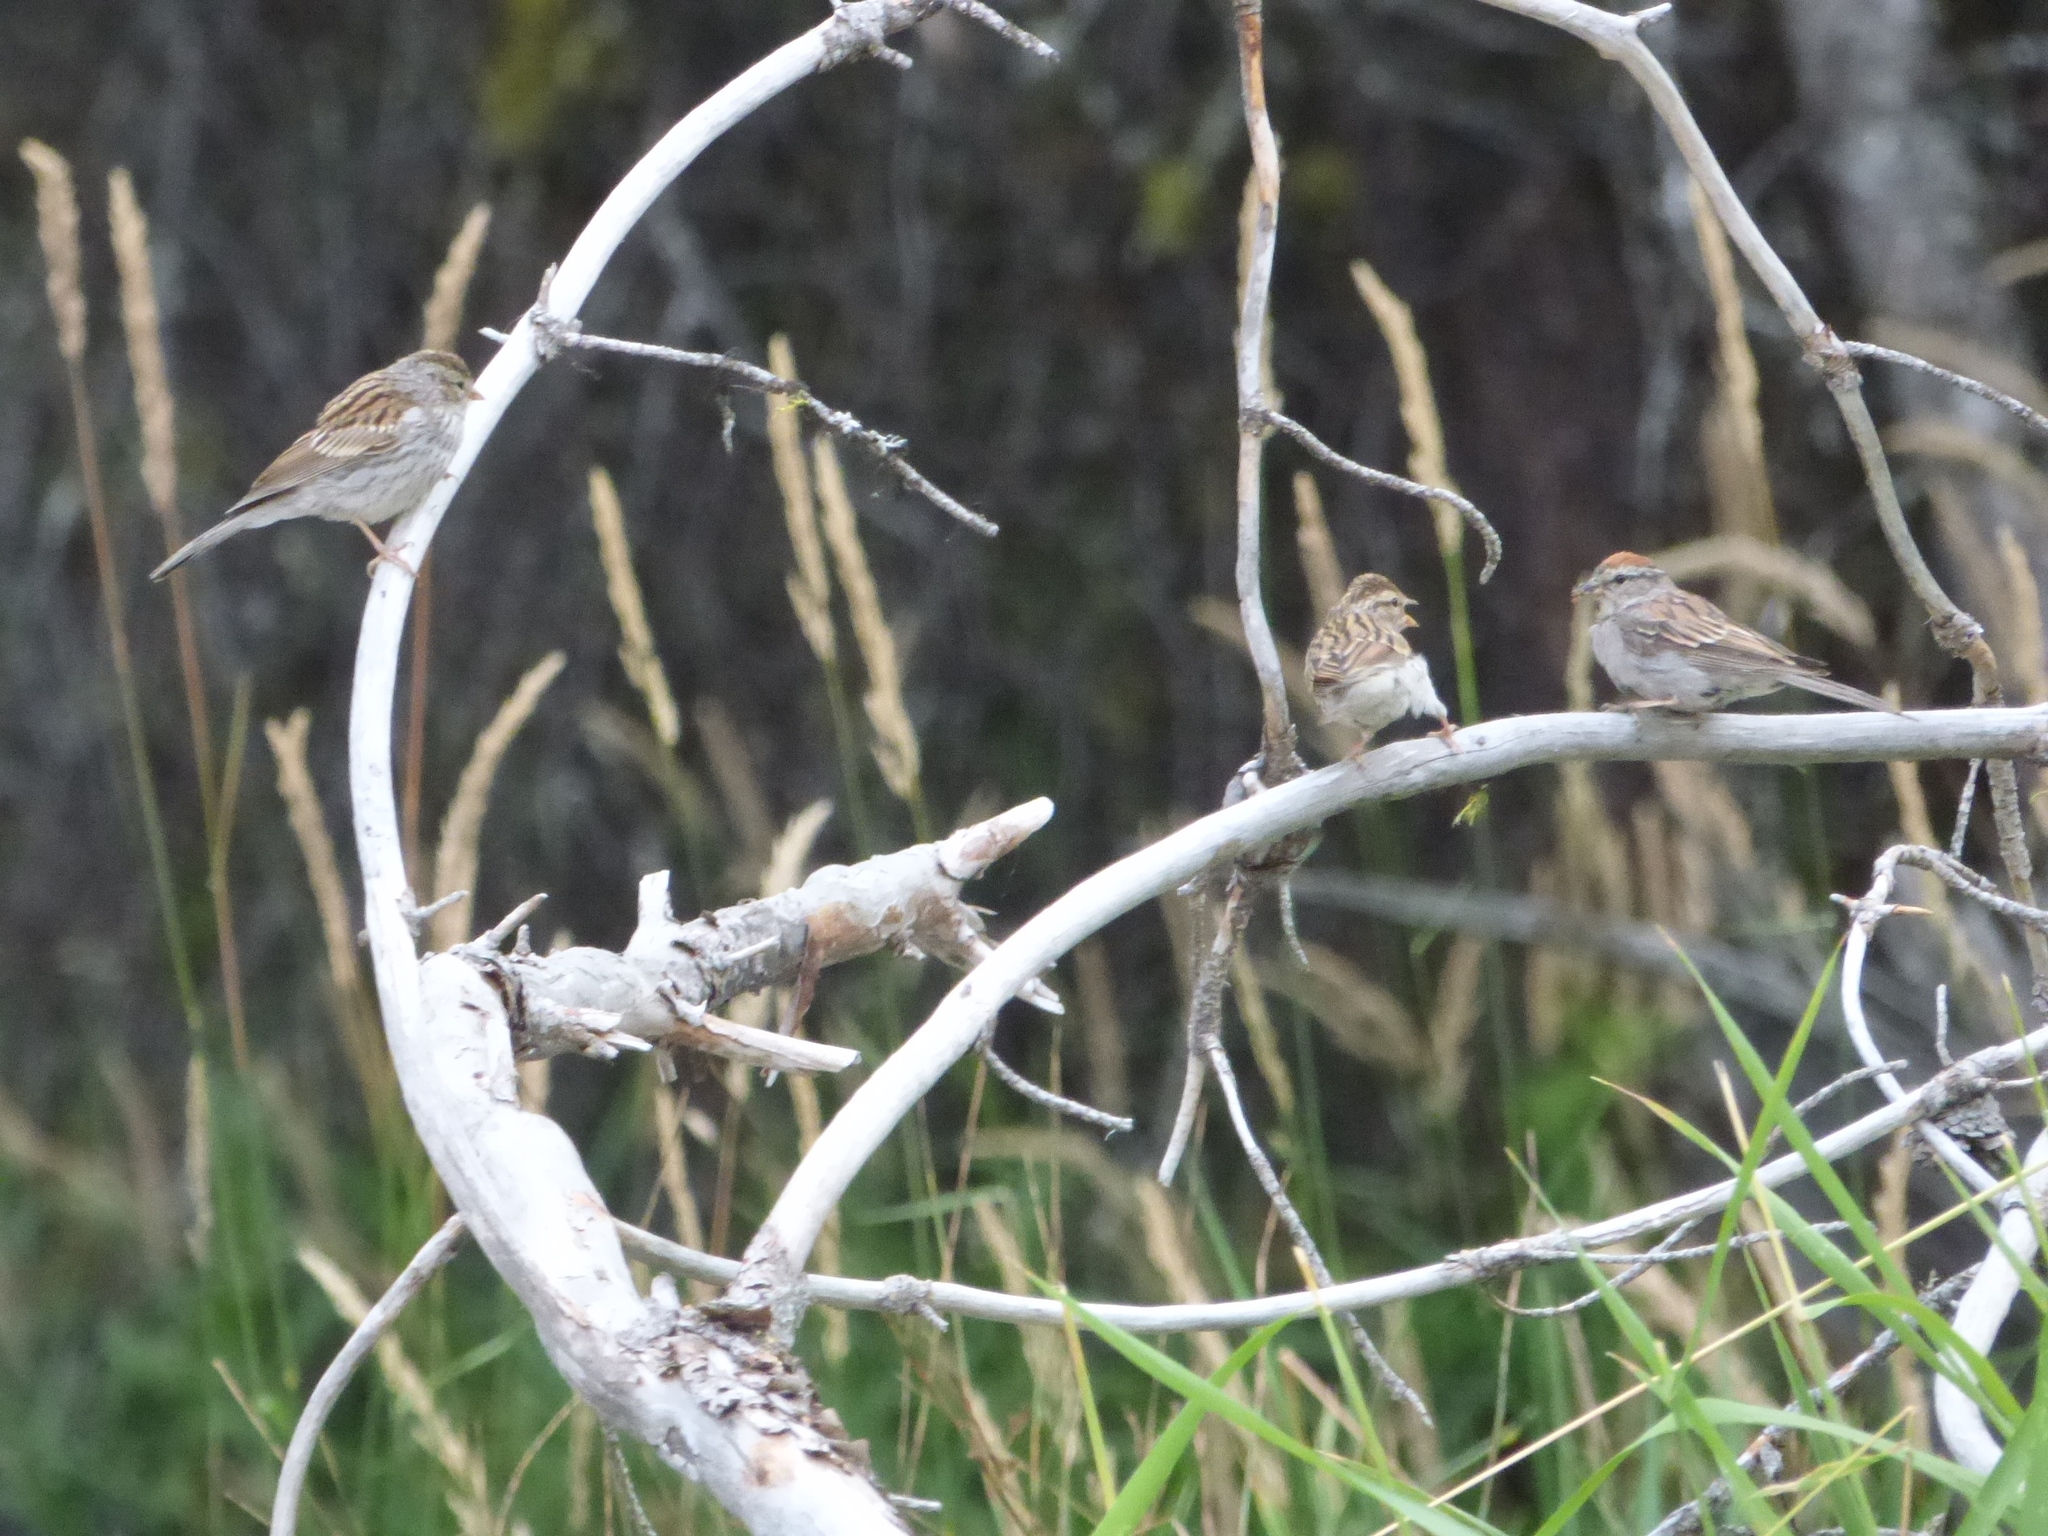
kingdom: Animalia
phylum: Chordata
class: Aves
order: Passeriformes
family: Passerellidae
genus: Spizella
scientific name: Spizella passerina
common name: Chipping sparrow
